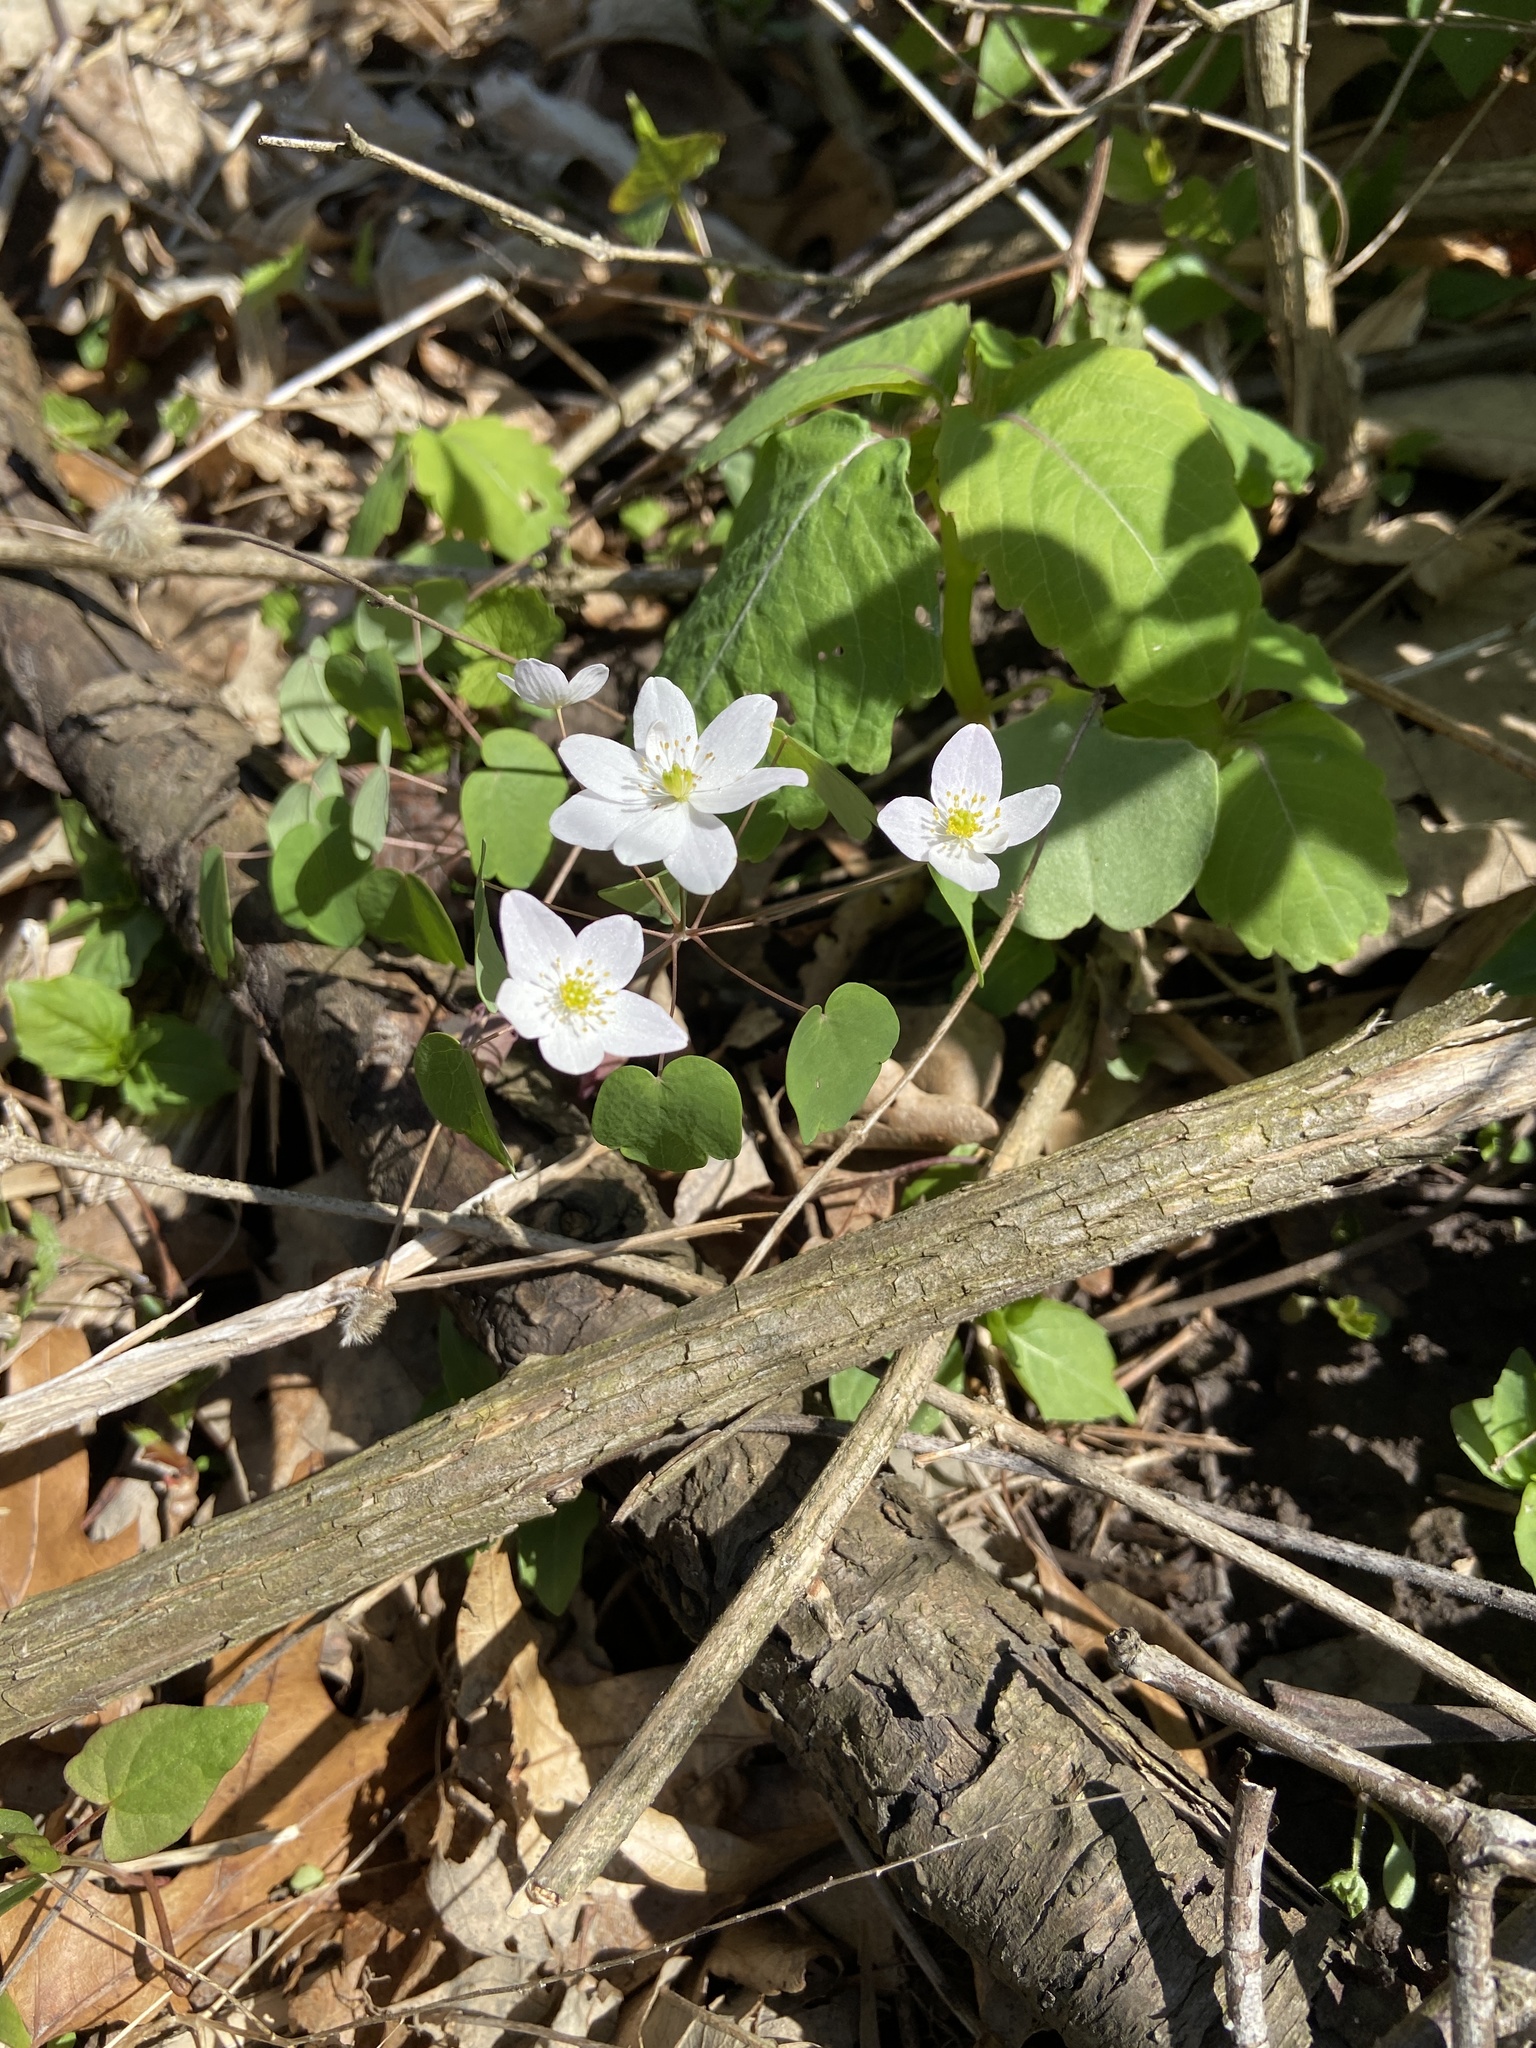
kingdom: Plantae
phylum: Tracheophyta
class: Magnoliopsida
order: Ranunculales
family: Ranunculaceae
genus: Thalictrum
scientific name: Thalictrum thalictroides
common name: Rue-anemone
